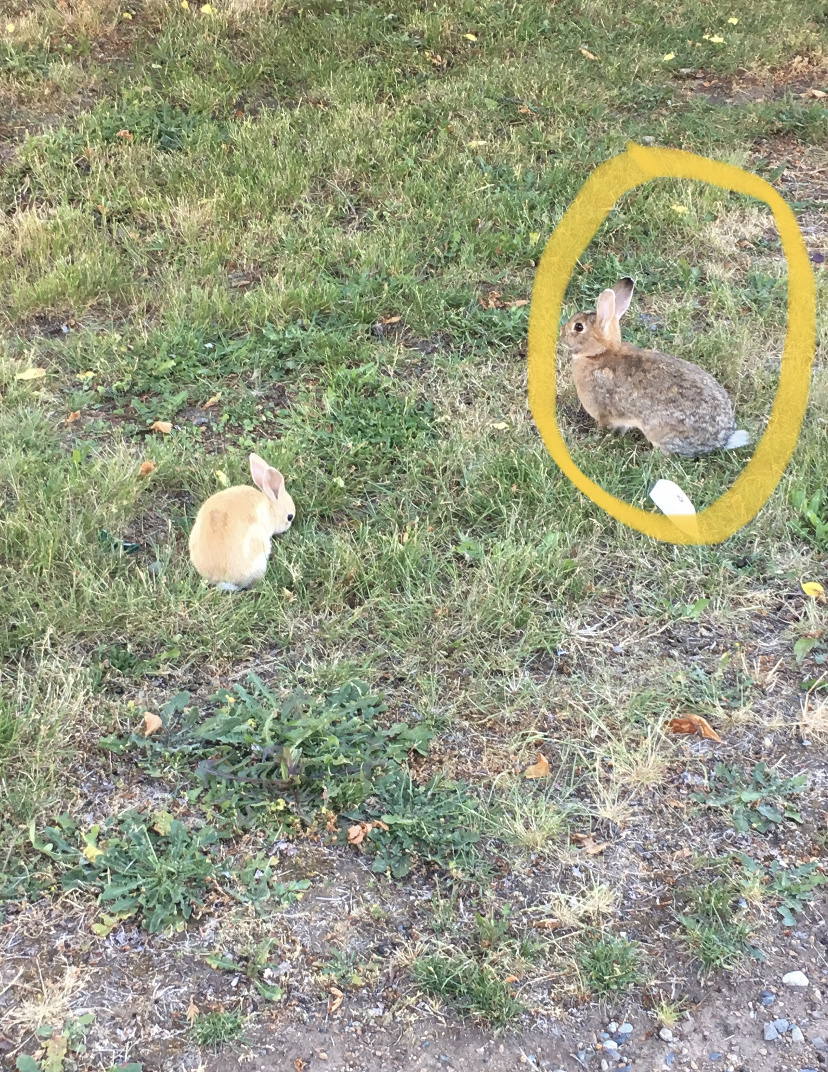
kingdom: Animalia
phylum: Chordata
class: Mammalia
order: Lagomorpha
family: Leporidae
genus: Sylvilagus
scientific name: Sylvilagus floridanus
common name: Eastern cottontail
